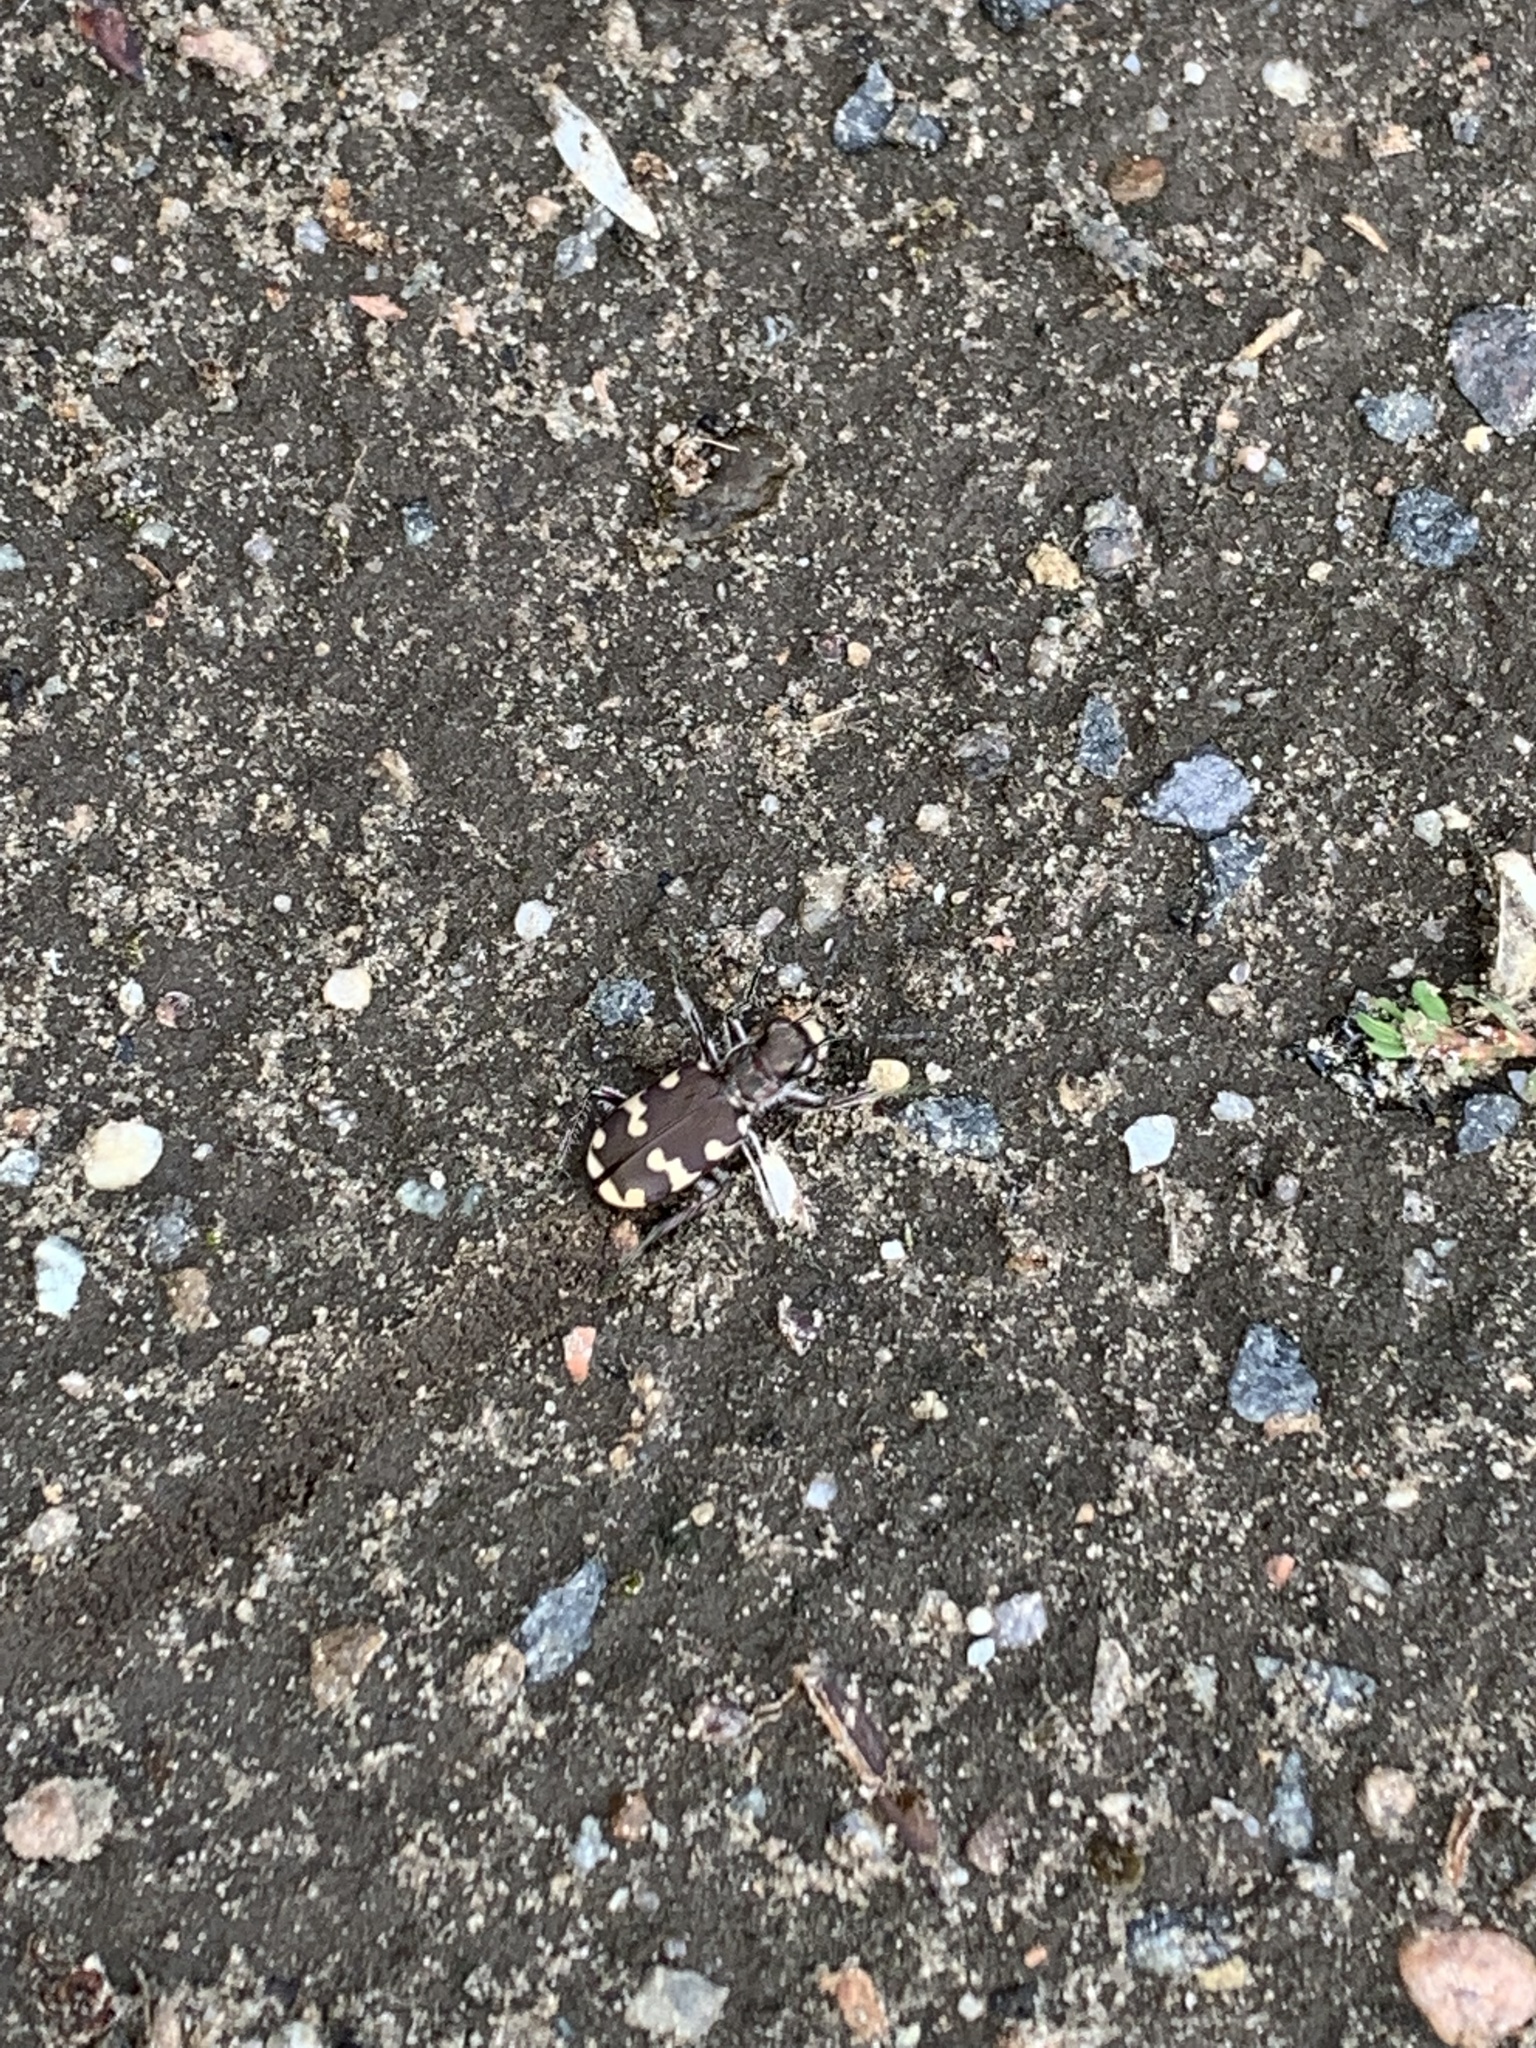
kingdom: Animalia
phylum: Arthropoda
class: Insecta
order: Coleoptera
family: Carabidae
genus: Cicindela
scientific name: Cicindela hybrida
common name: Northern dune tiger beetle
